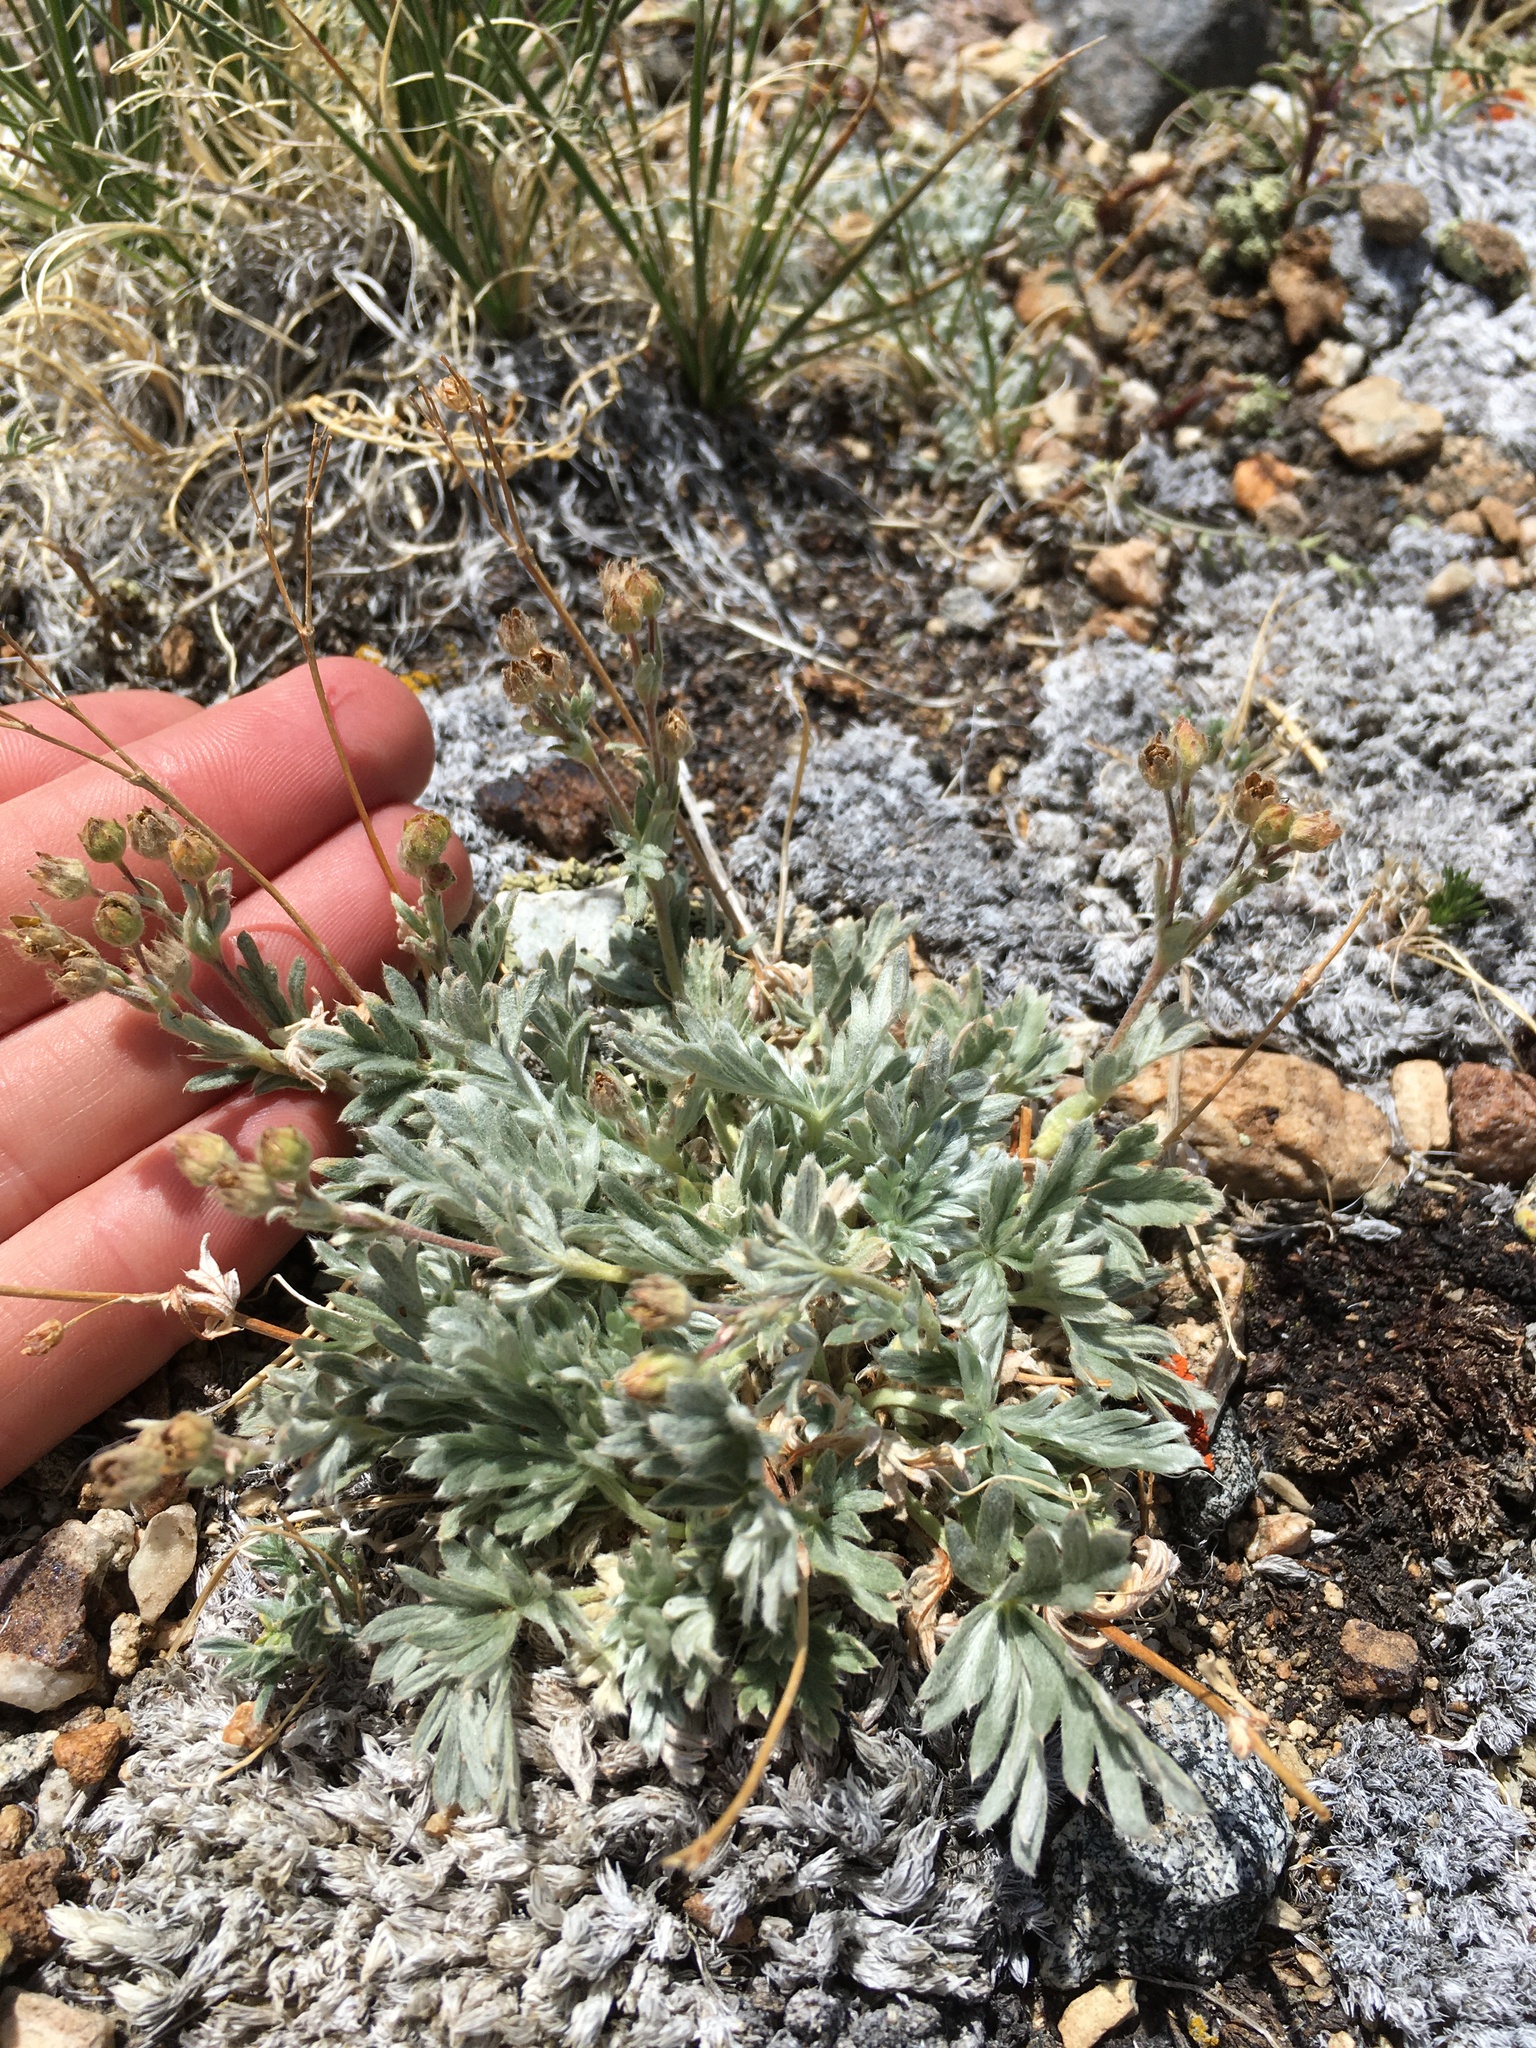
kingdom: Plantae
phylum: Tracheophyta
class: Magnoliopsida
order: Rosales
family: Rosaceae
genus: Potentilla
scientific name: Potentilla pseudosericea
